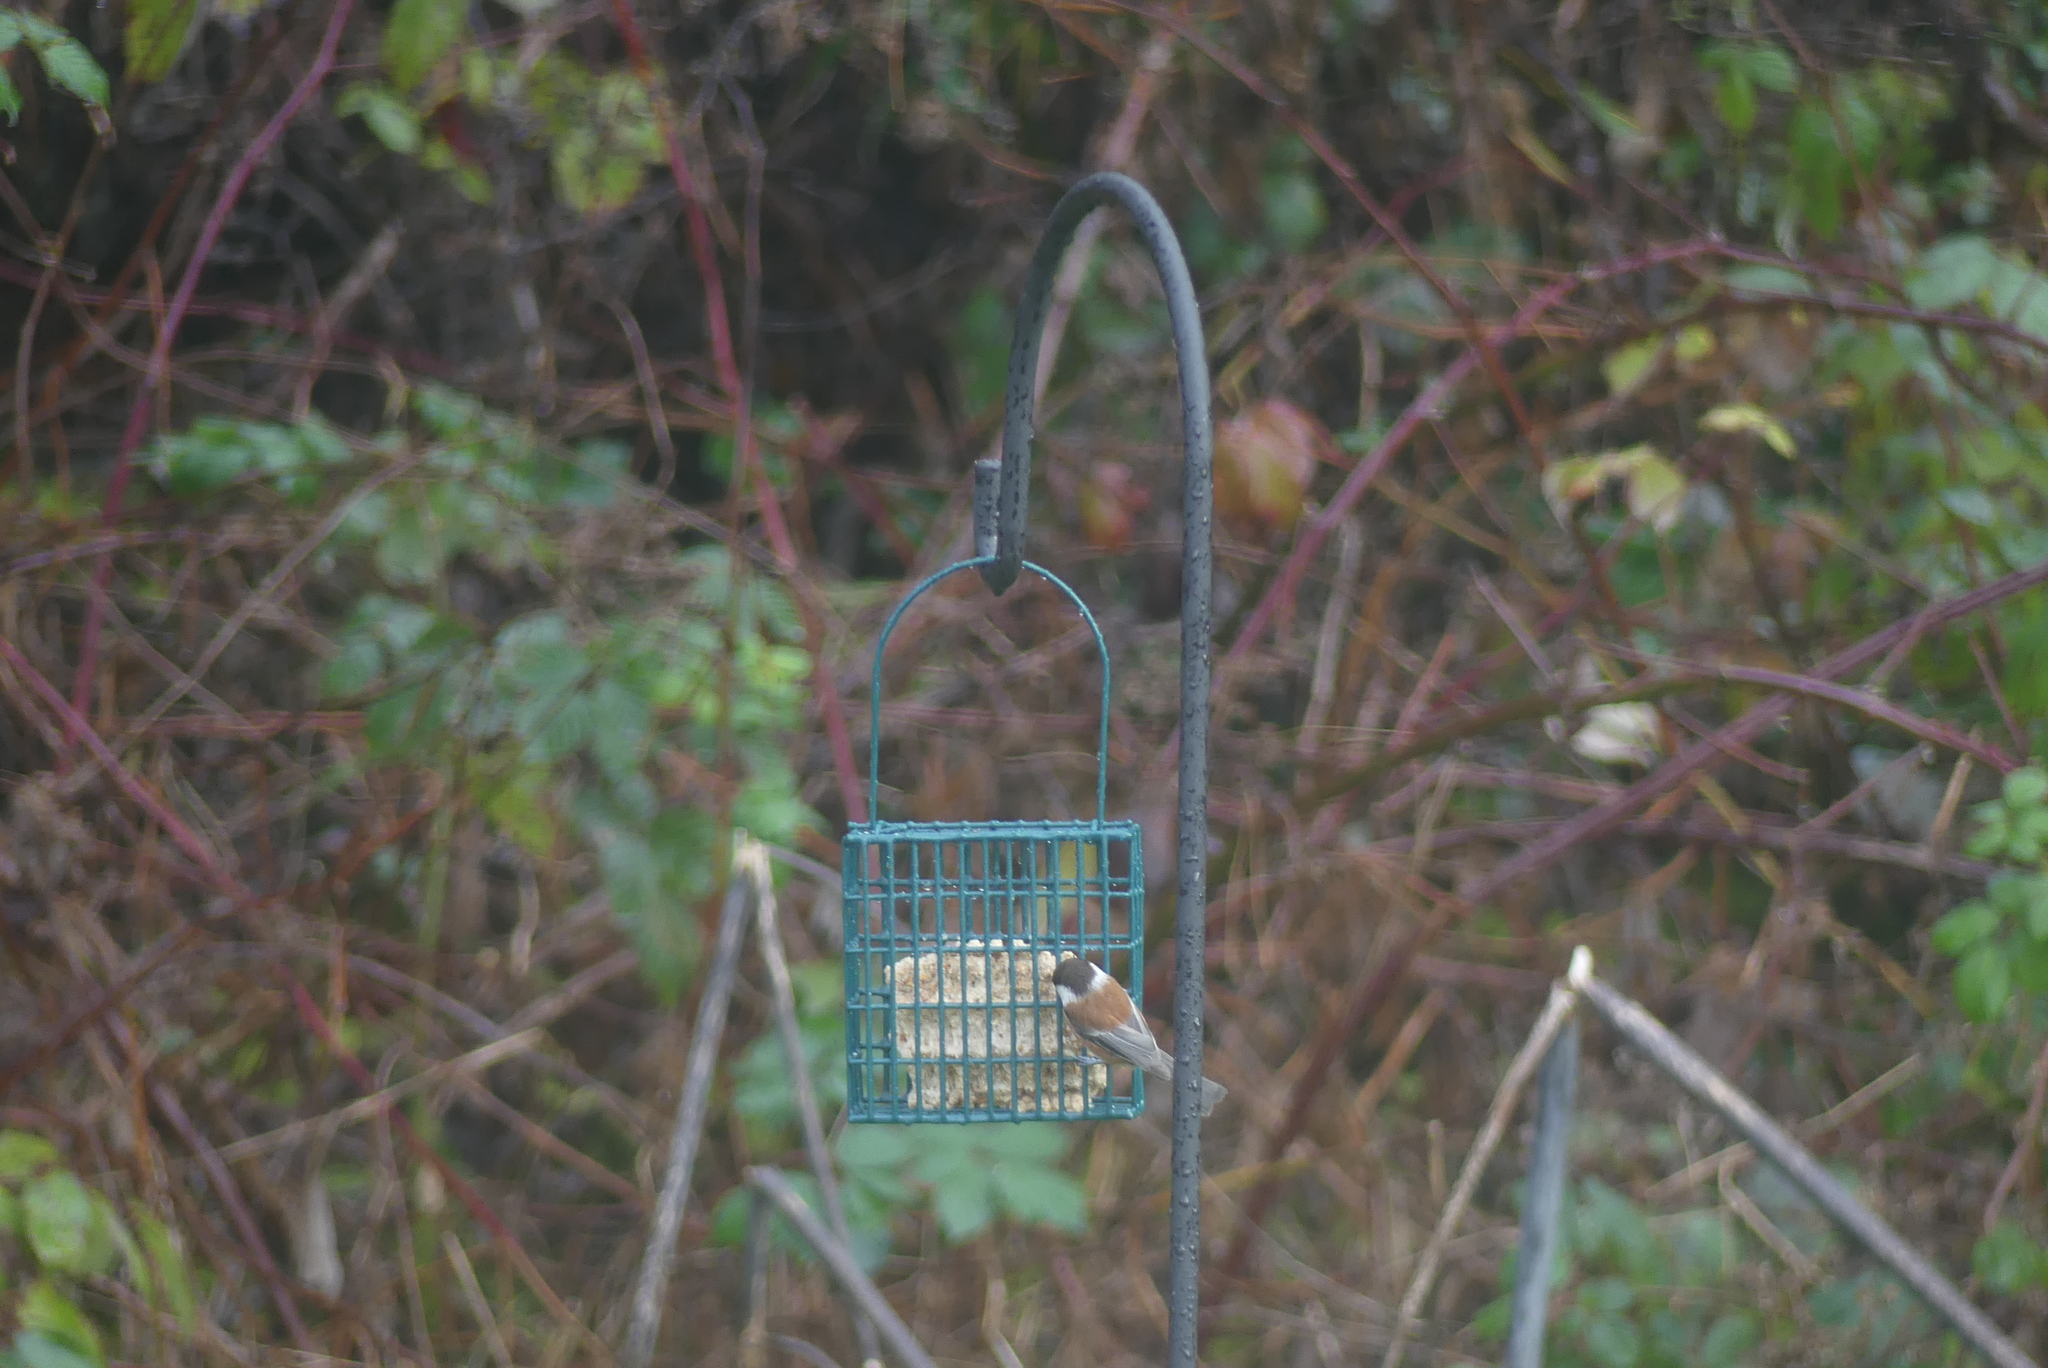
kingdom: Animalia
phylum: Chordata
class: Aves
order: Passeriformes
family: Paridae
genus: Poecile
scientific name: Poecile rufescens
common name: Chestnut-backed chickadee
